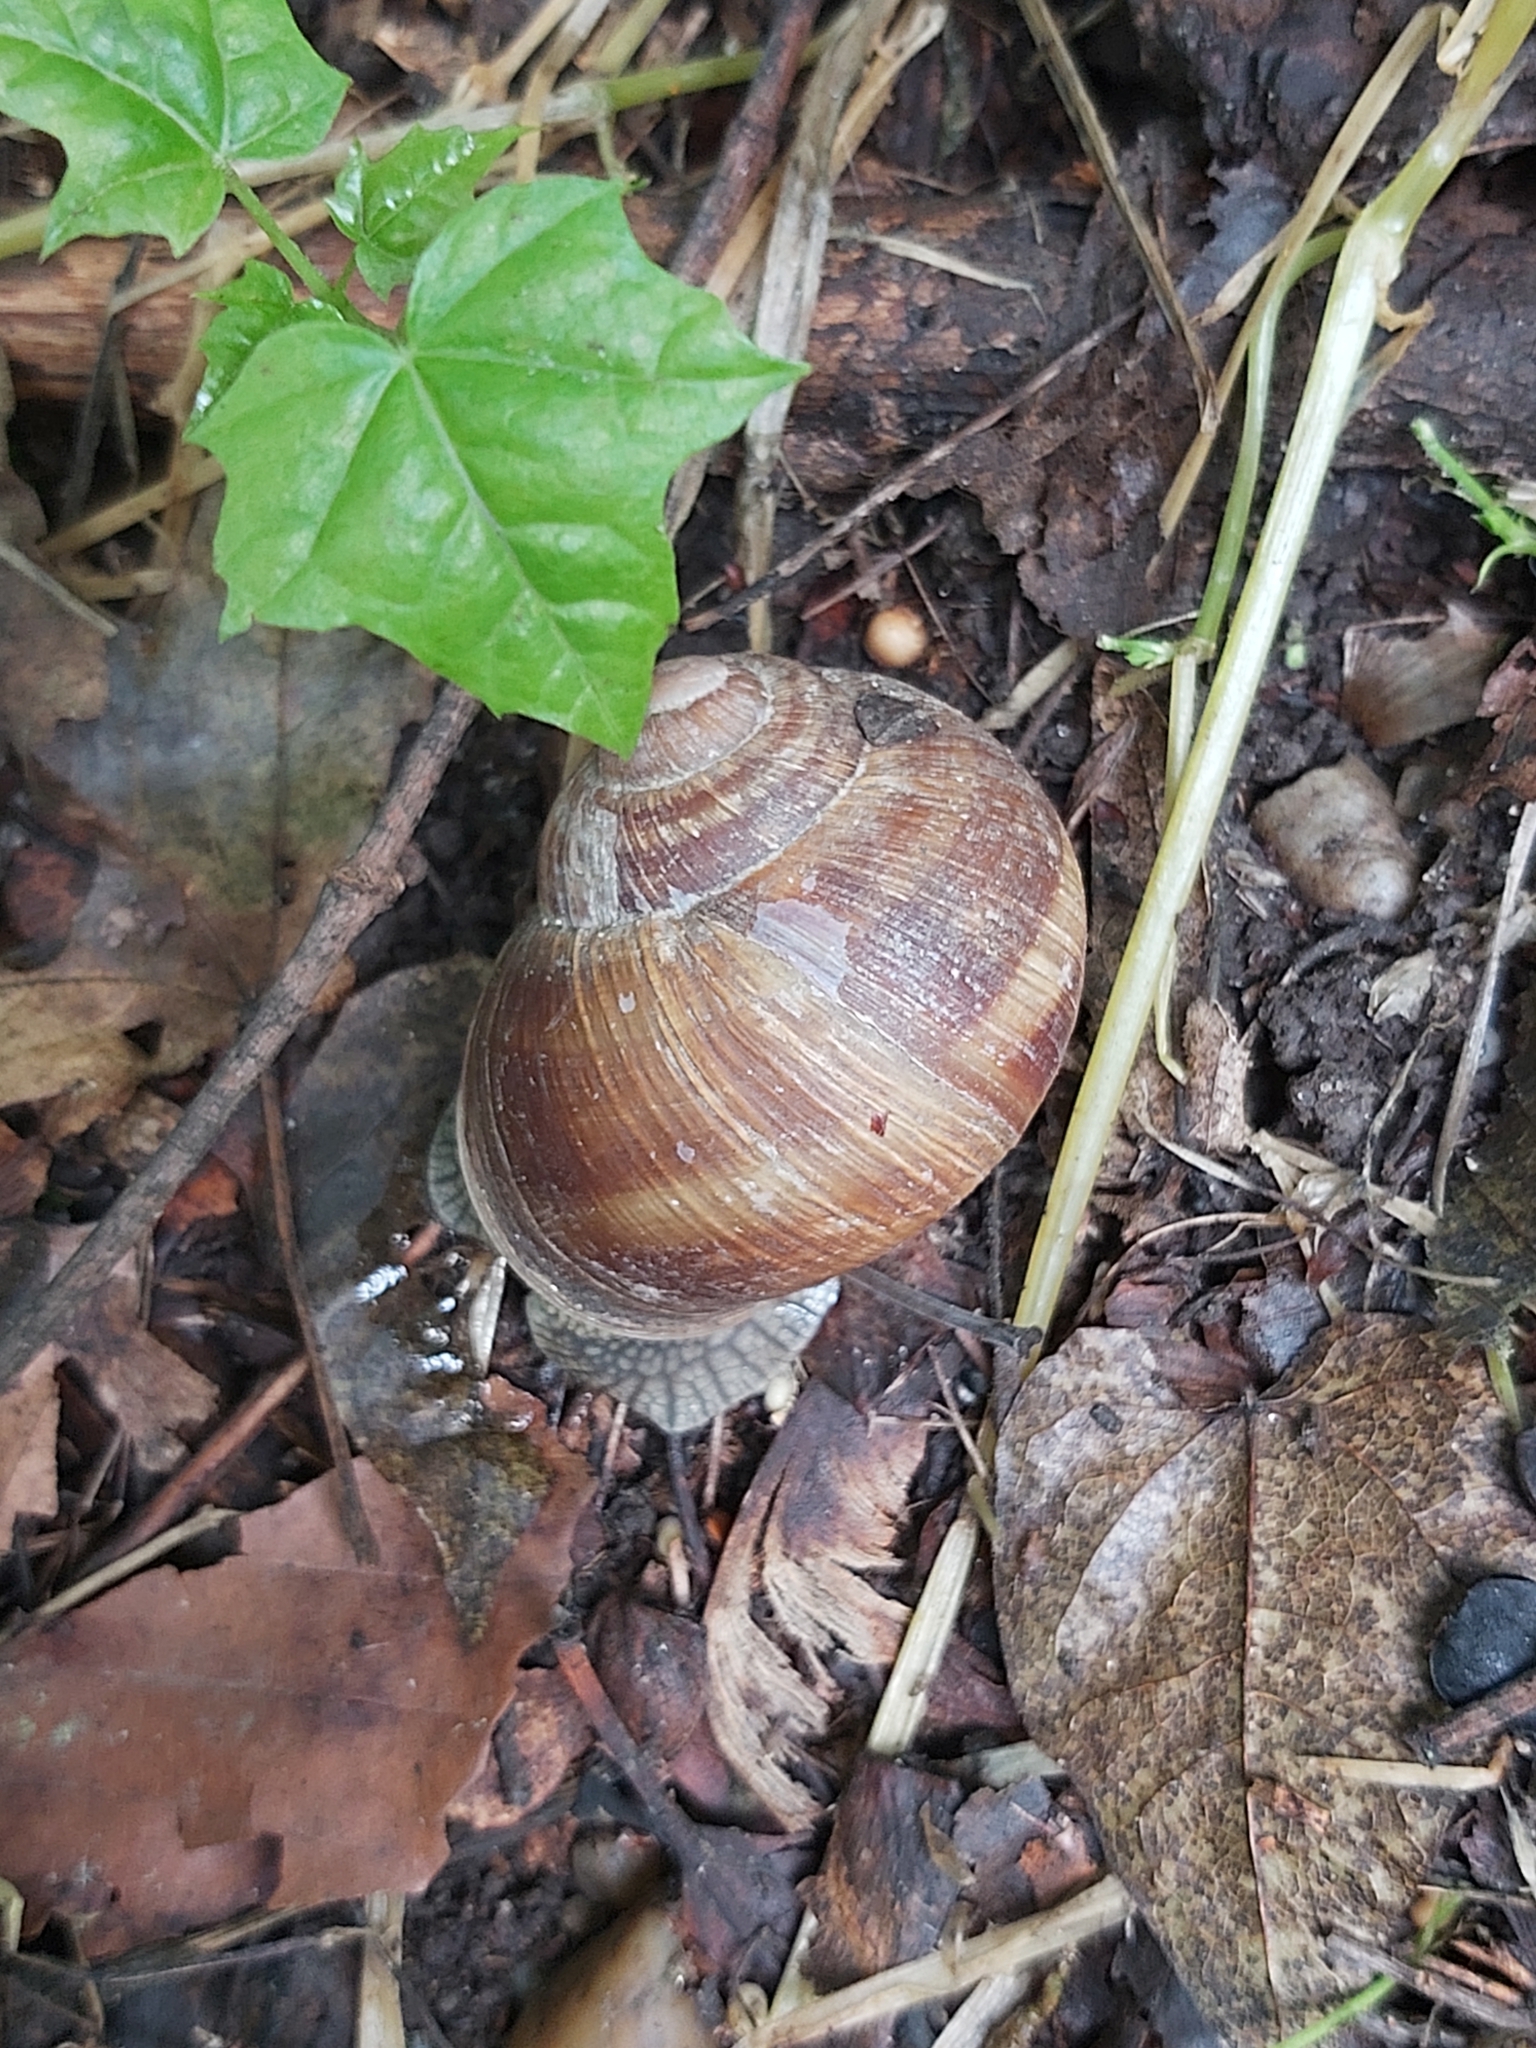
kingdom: Animalia
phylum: Mollusca
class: Gastropoda
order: Stylommatophora
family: Helicidae
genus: Helix
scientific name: Helix pomatia
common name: Roman snail
